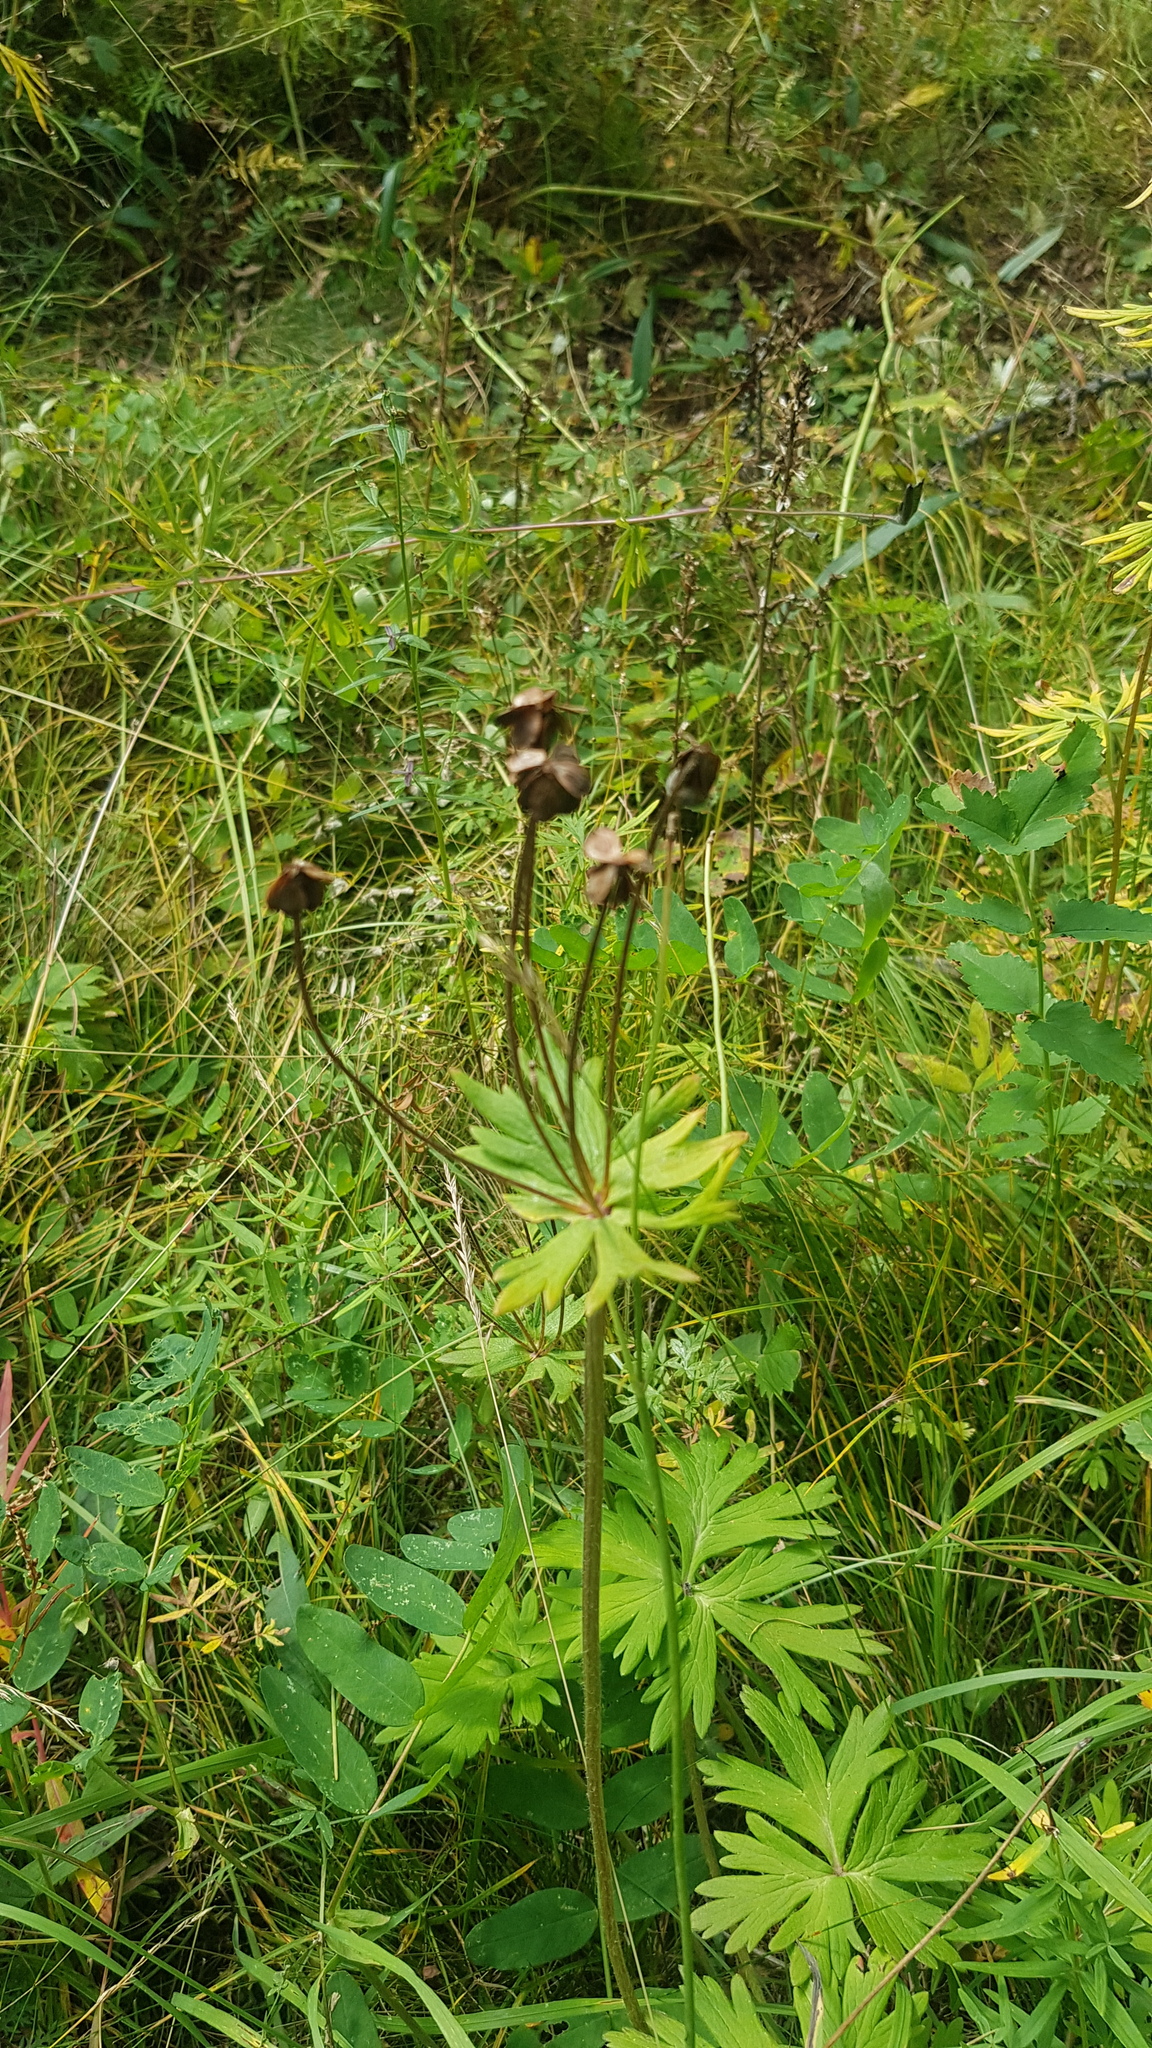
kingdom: Plantae
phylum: Tracheophyta
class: Magnoliopsida
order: Ranunculales
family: Ranunculaceae
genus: Anemonastrum
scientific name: Anemonastrum narcissiflorum
